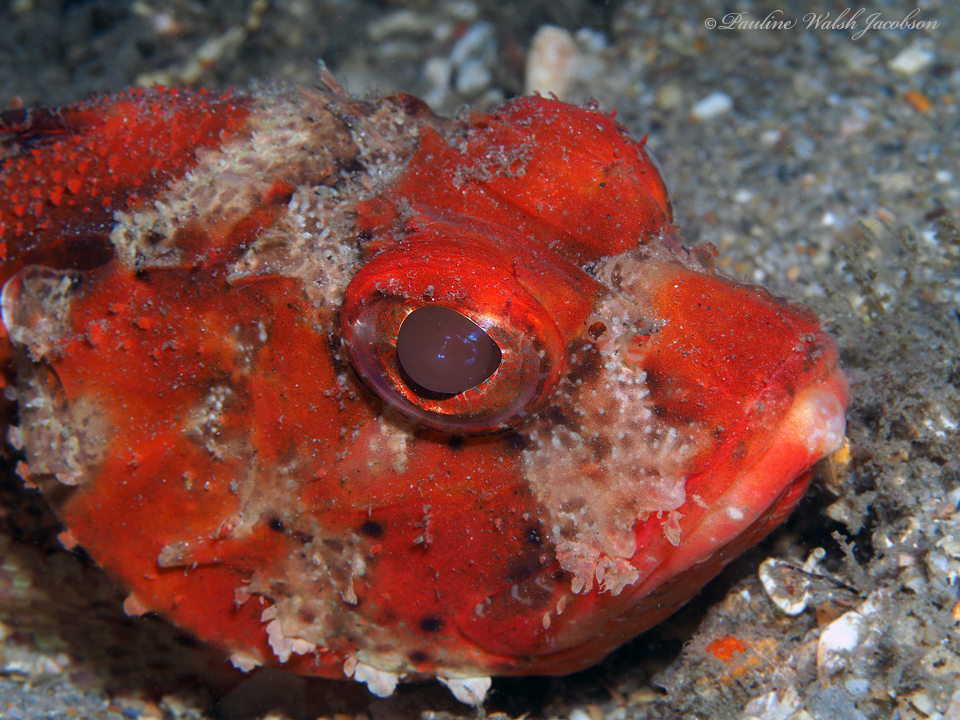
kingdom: Animalia
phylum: Chordata
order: Scorpaeniformes
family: Scorpaenidae
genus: Scorpaena
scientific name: Scorpaena brasiliensis
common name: Barbfish
